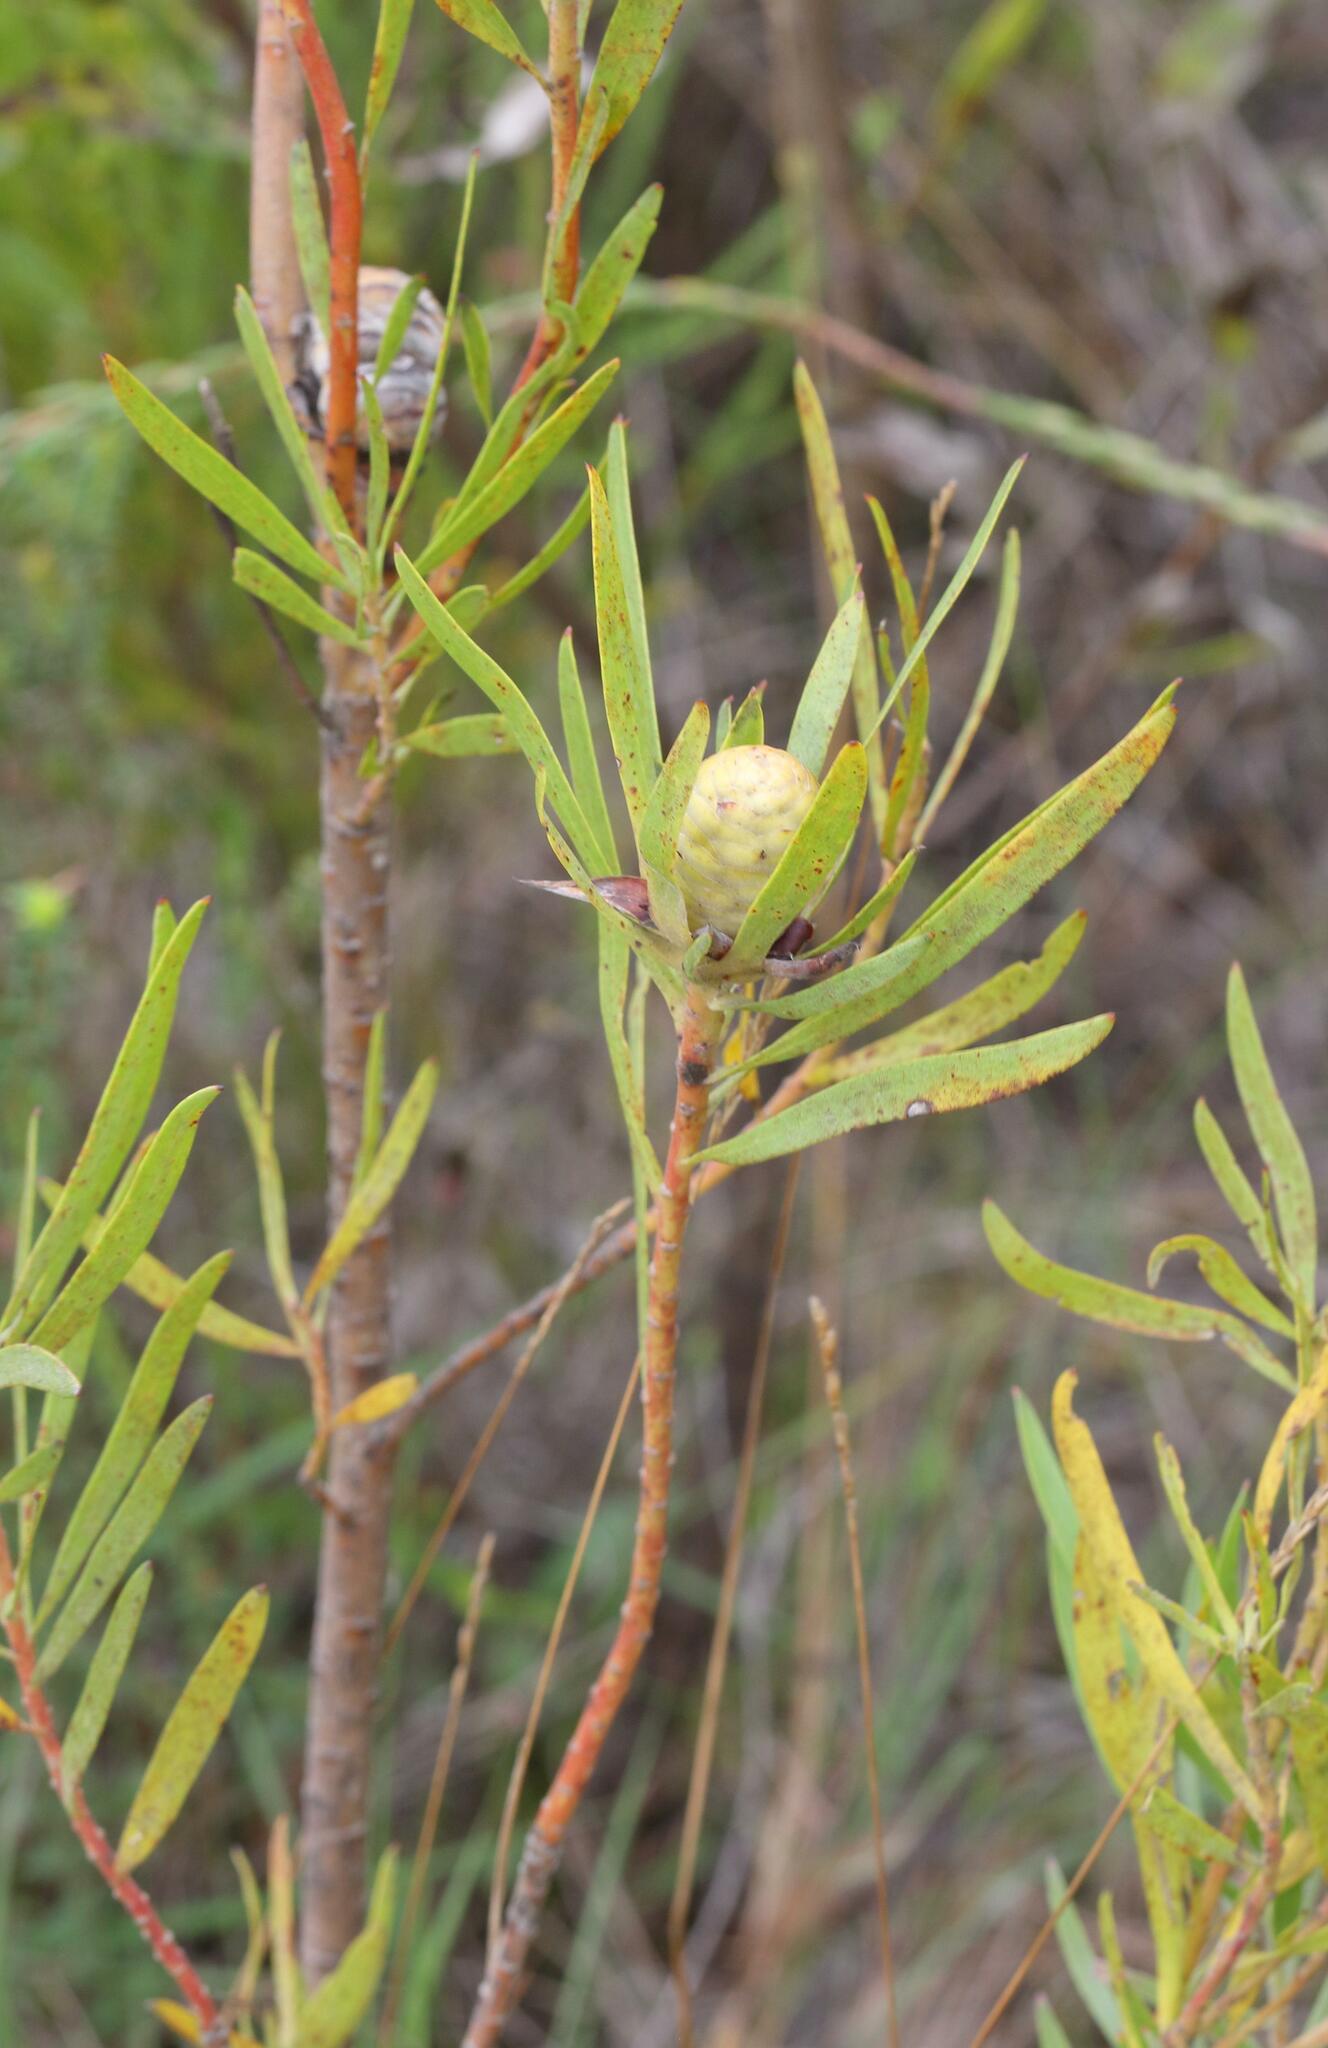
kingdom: Plantae
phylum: Tracheophyta
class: Magnoliopsida
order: Proteales
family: Proteaceae
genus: Leucadendron
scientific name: Leucadendron eucalyptifolium
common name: Gum-leaved conebush
